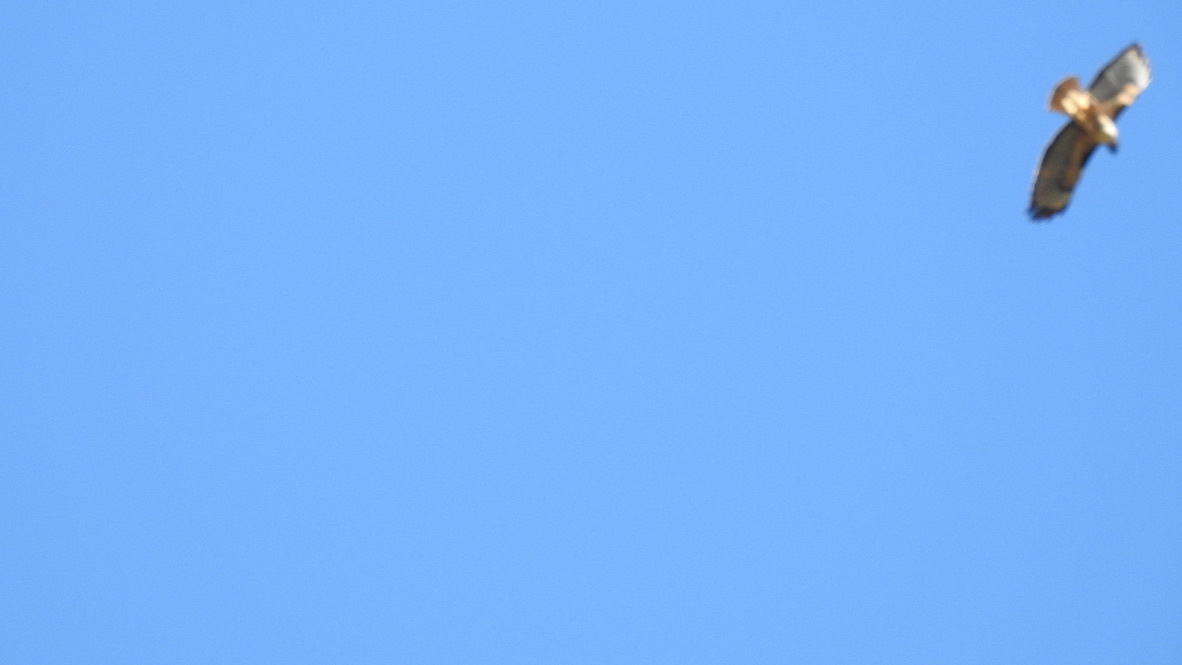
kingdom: Animalia
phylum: Chordata
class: Aves
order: Accipitriformes
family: Accipitridae
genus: Buteo
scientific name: Buteo jamaicensis
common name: Red-tailed hawk
